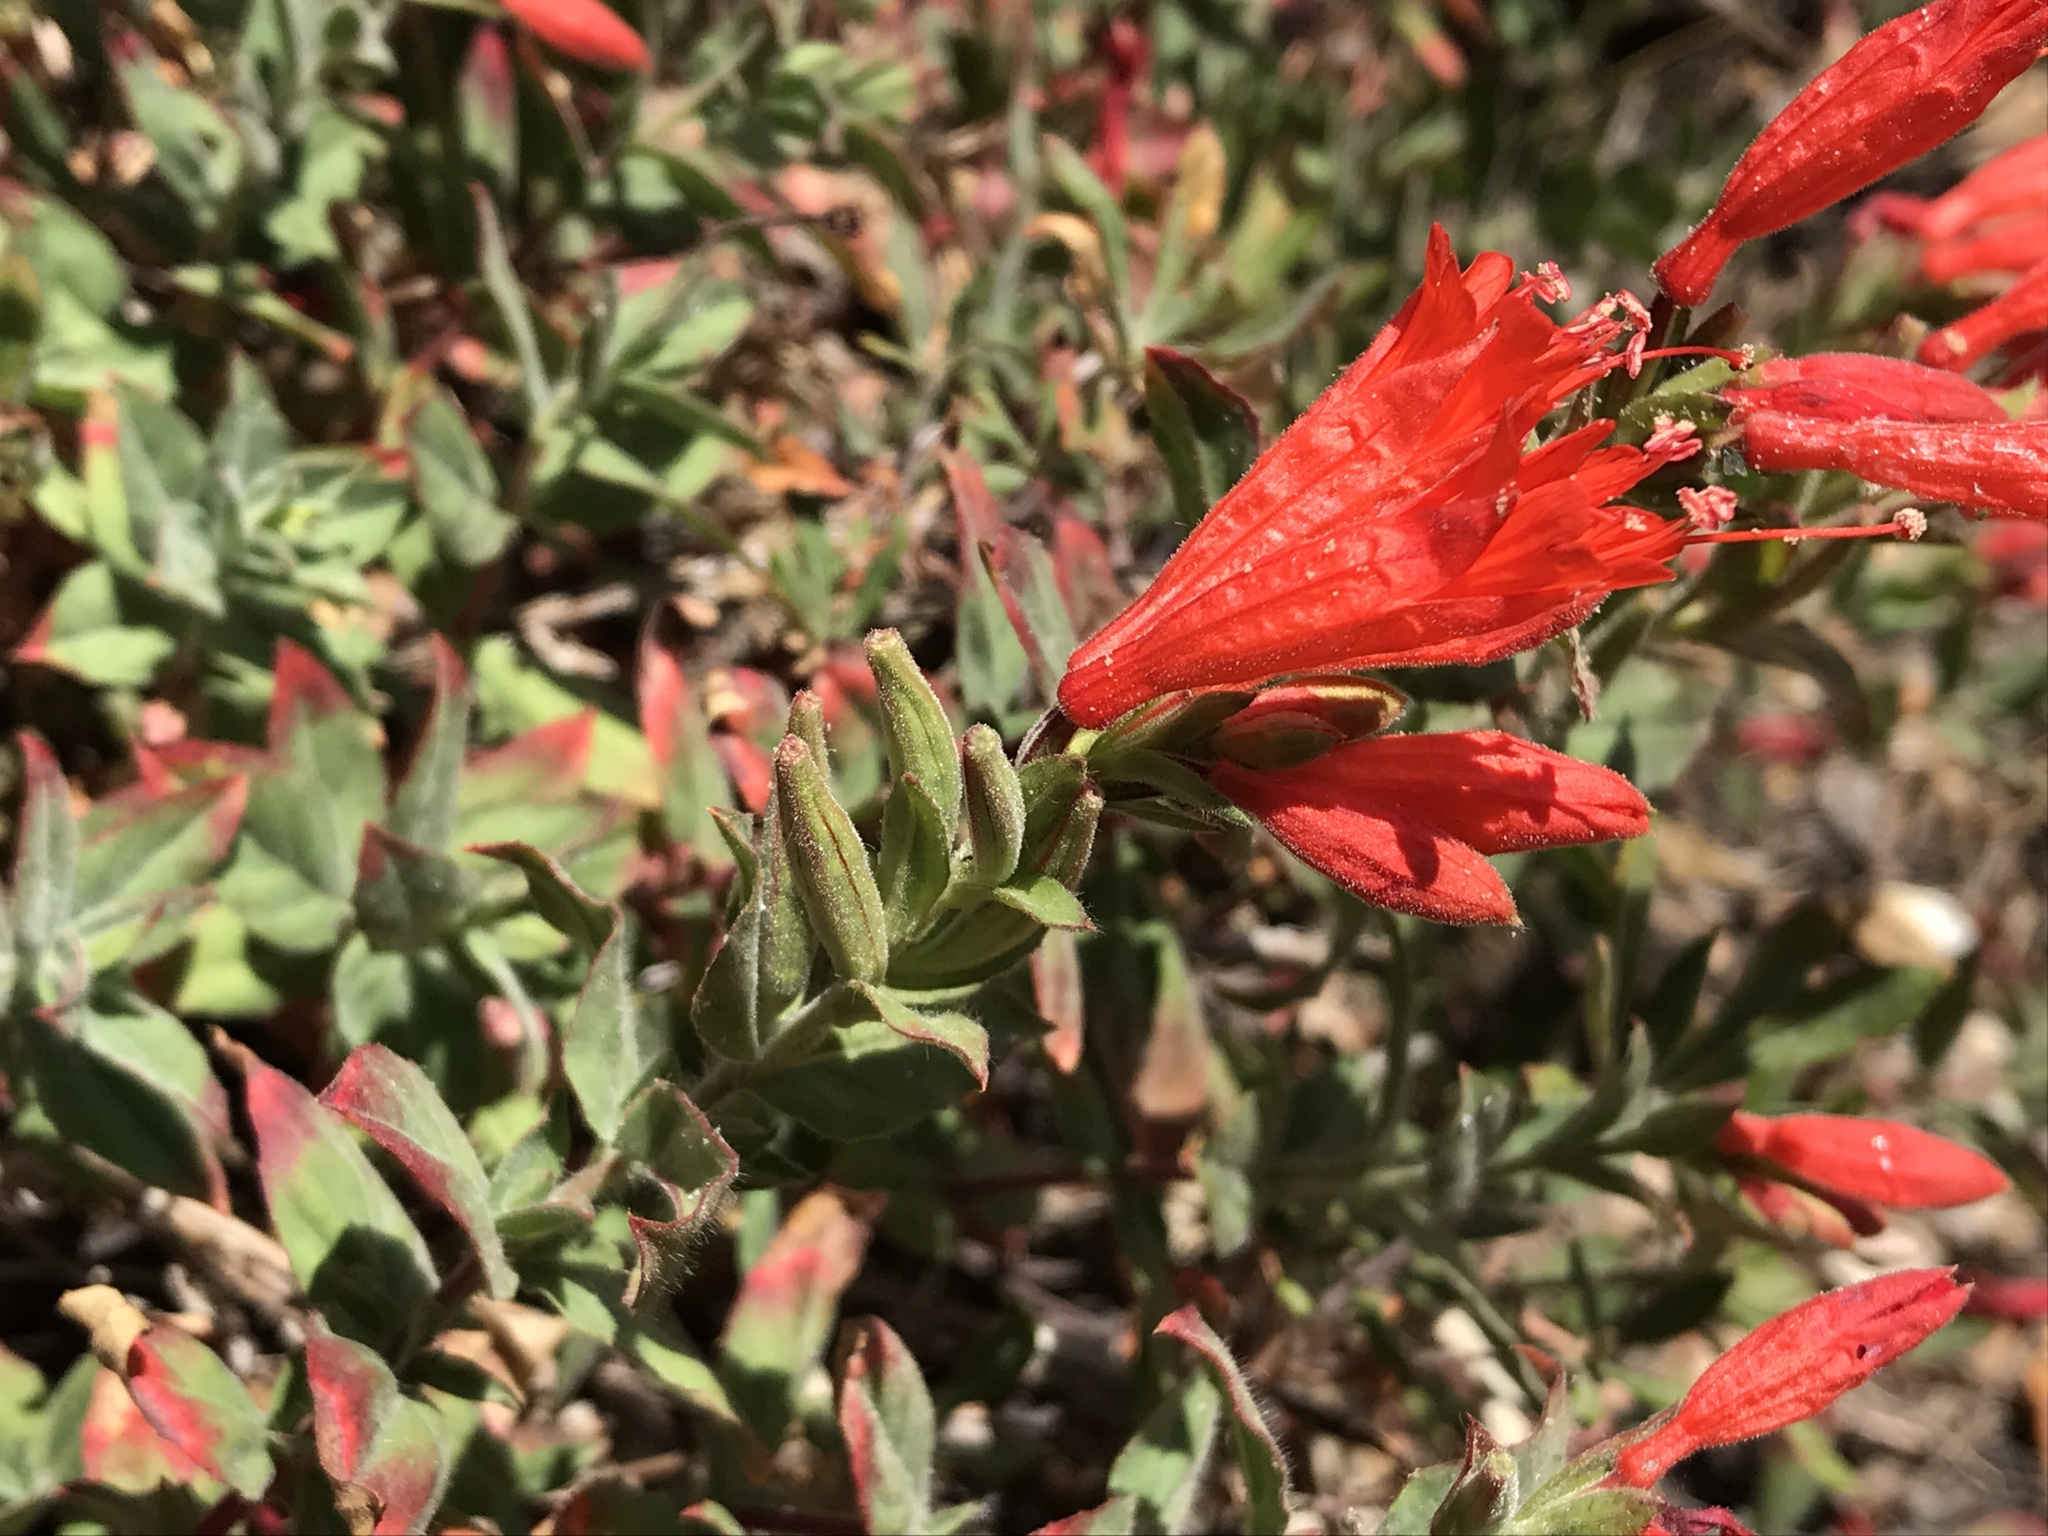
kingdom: Plantae
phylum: Tracheophyta
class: Magnoliopsida
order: Myrtales
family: Onagraceae
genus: Epilobium
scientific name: Epilobium canum
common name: California-fuchsia
